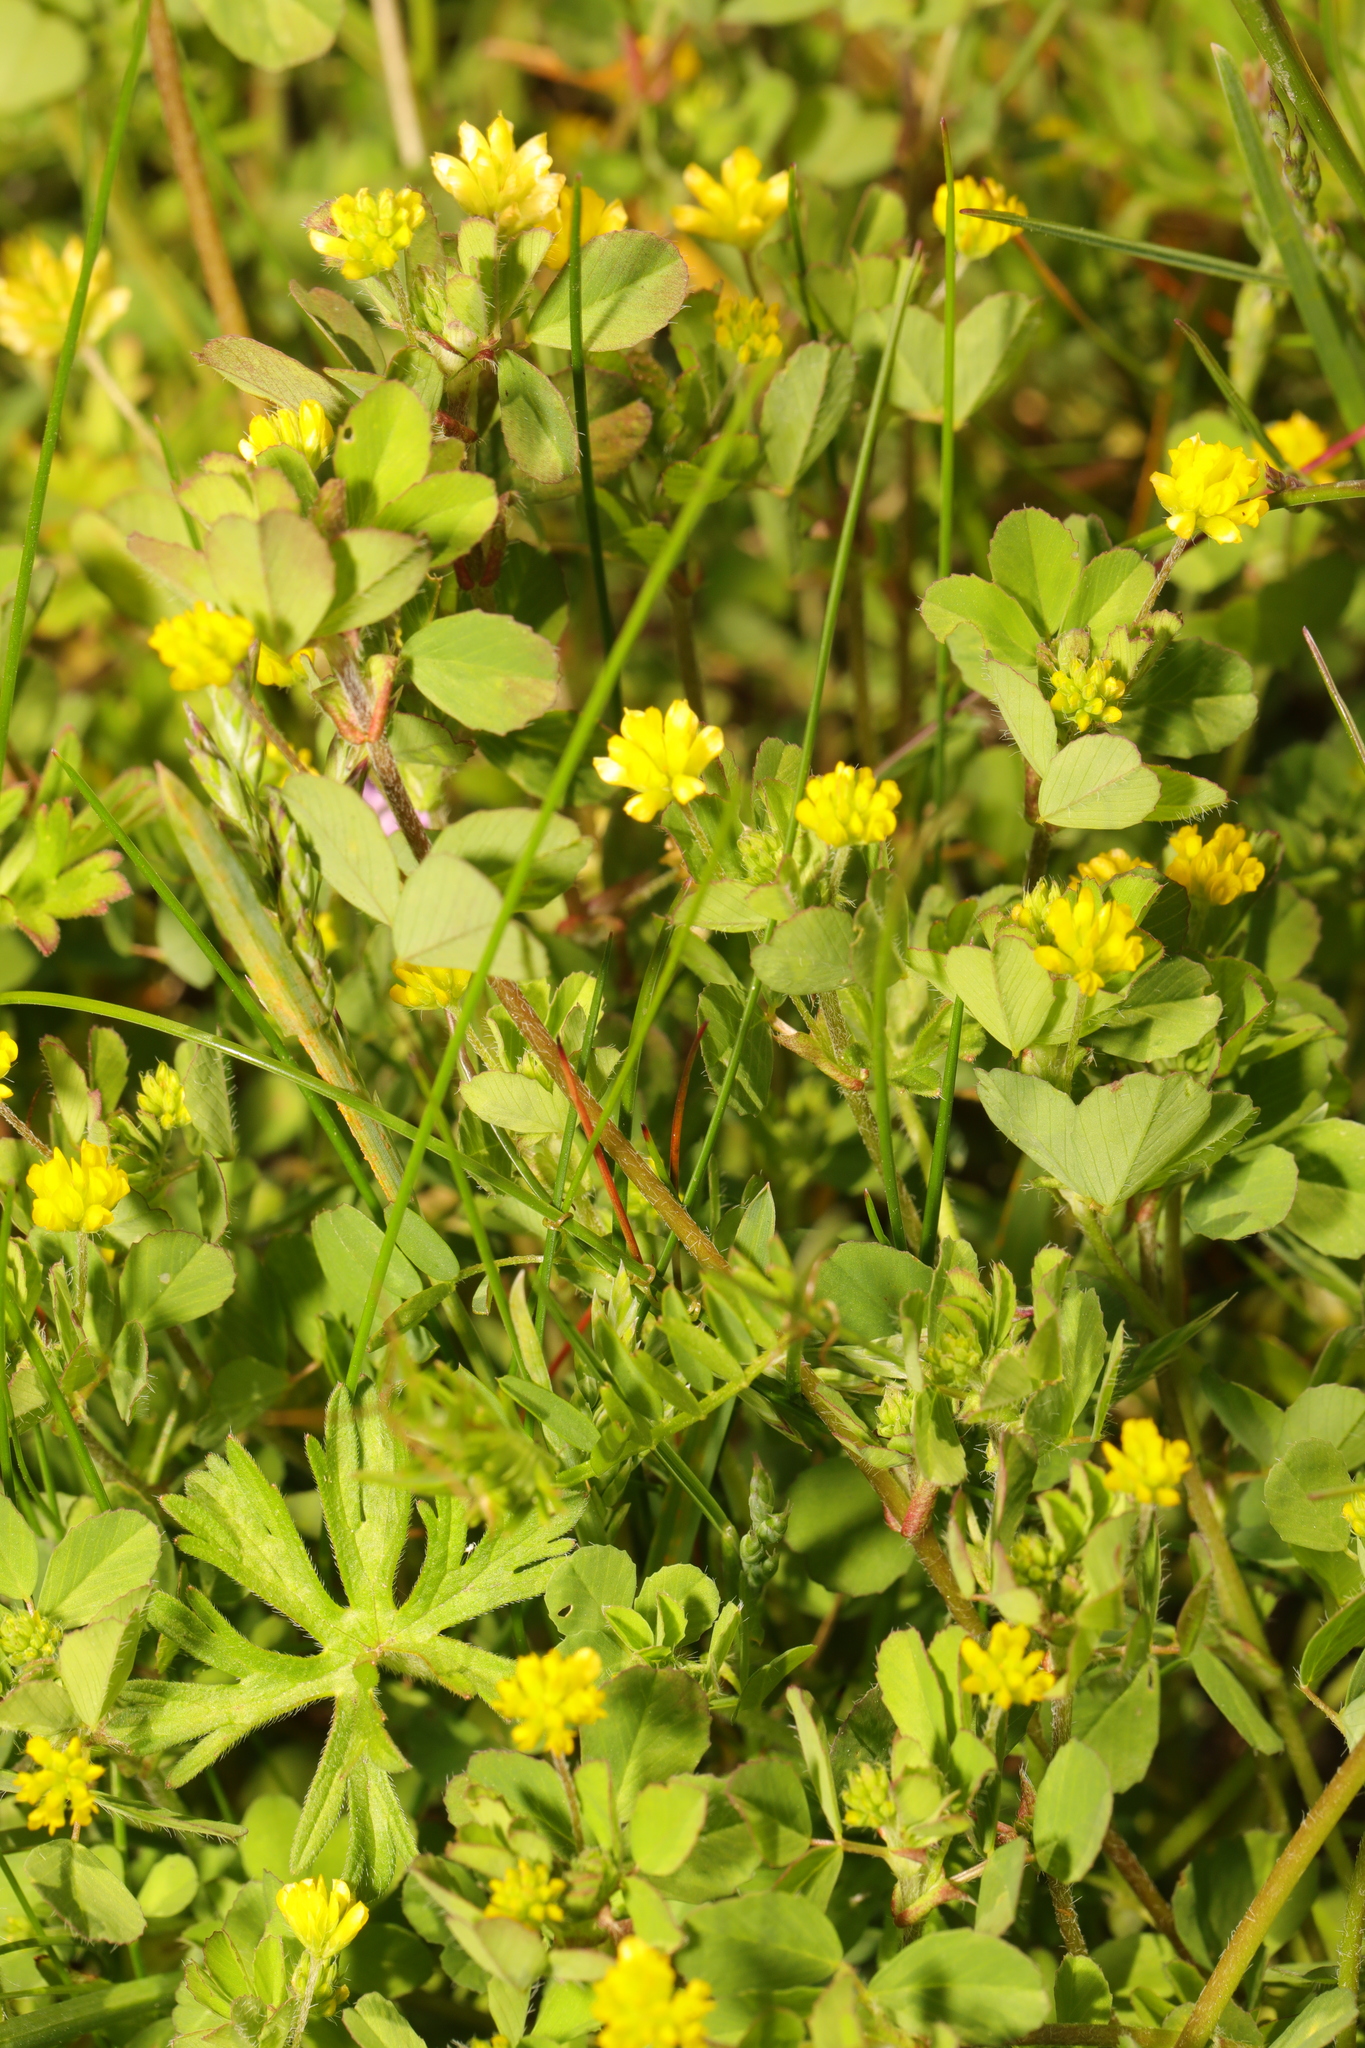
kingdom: Plantae
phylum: Tracheophyta
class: Magnoliopsida
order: Fabales
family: Fabaceae
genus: Trifolium
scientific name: Trifolium dubium
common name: Suckling clover
